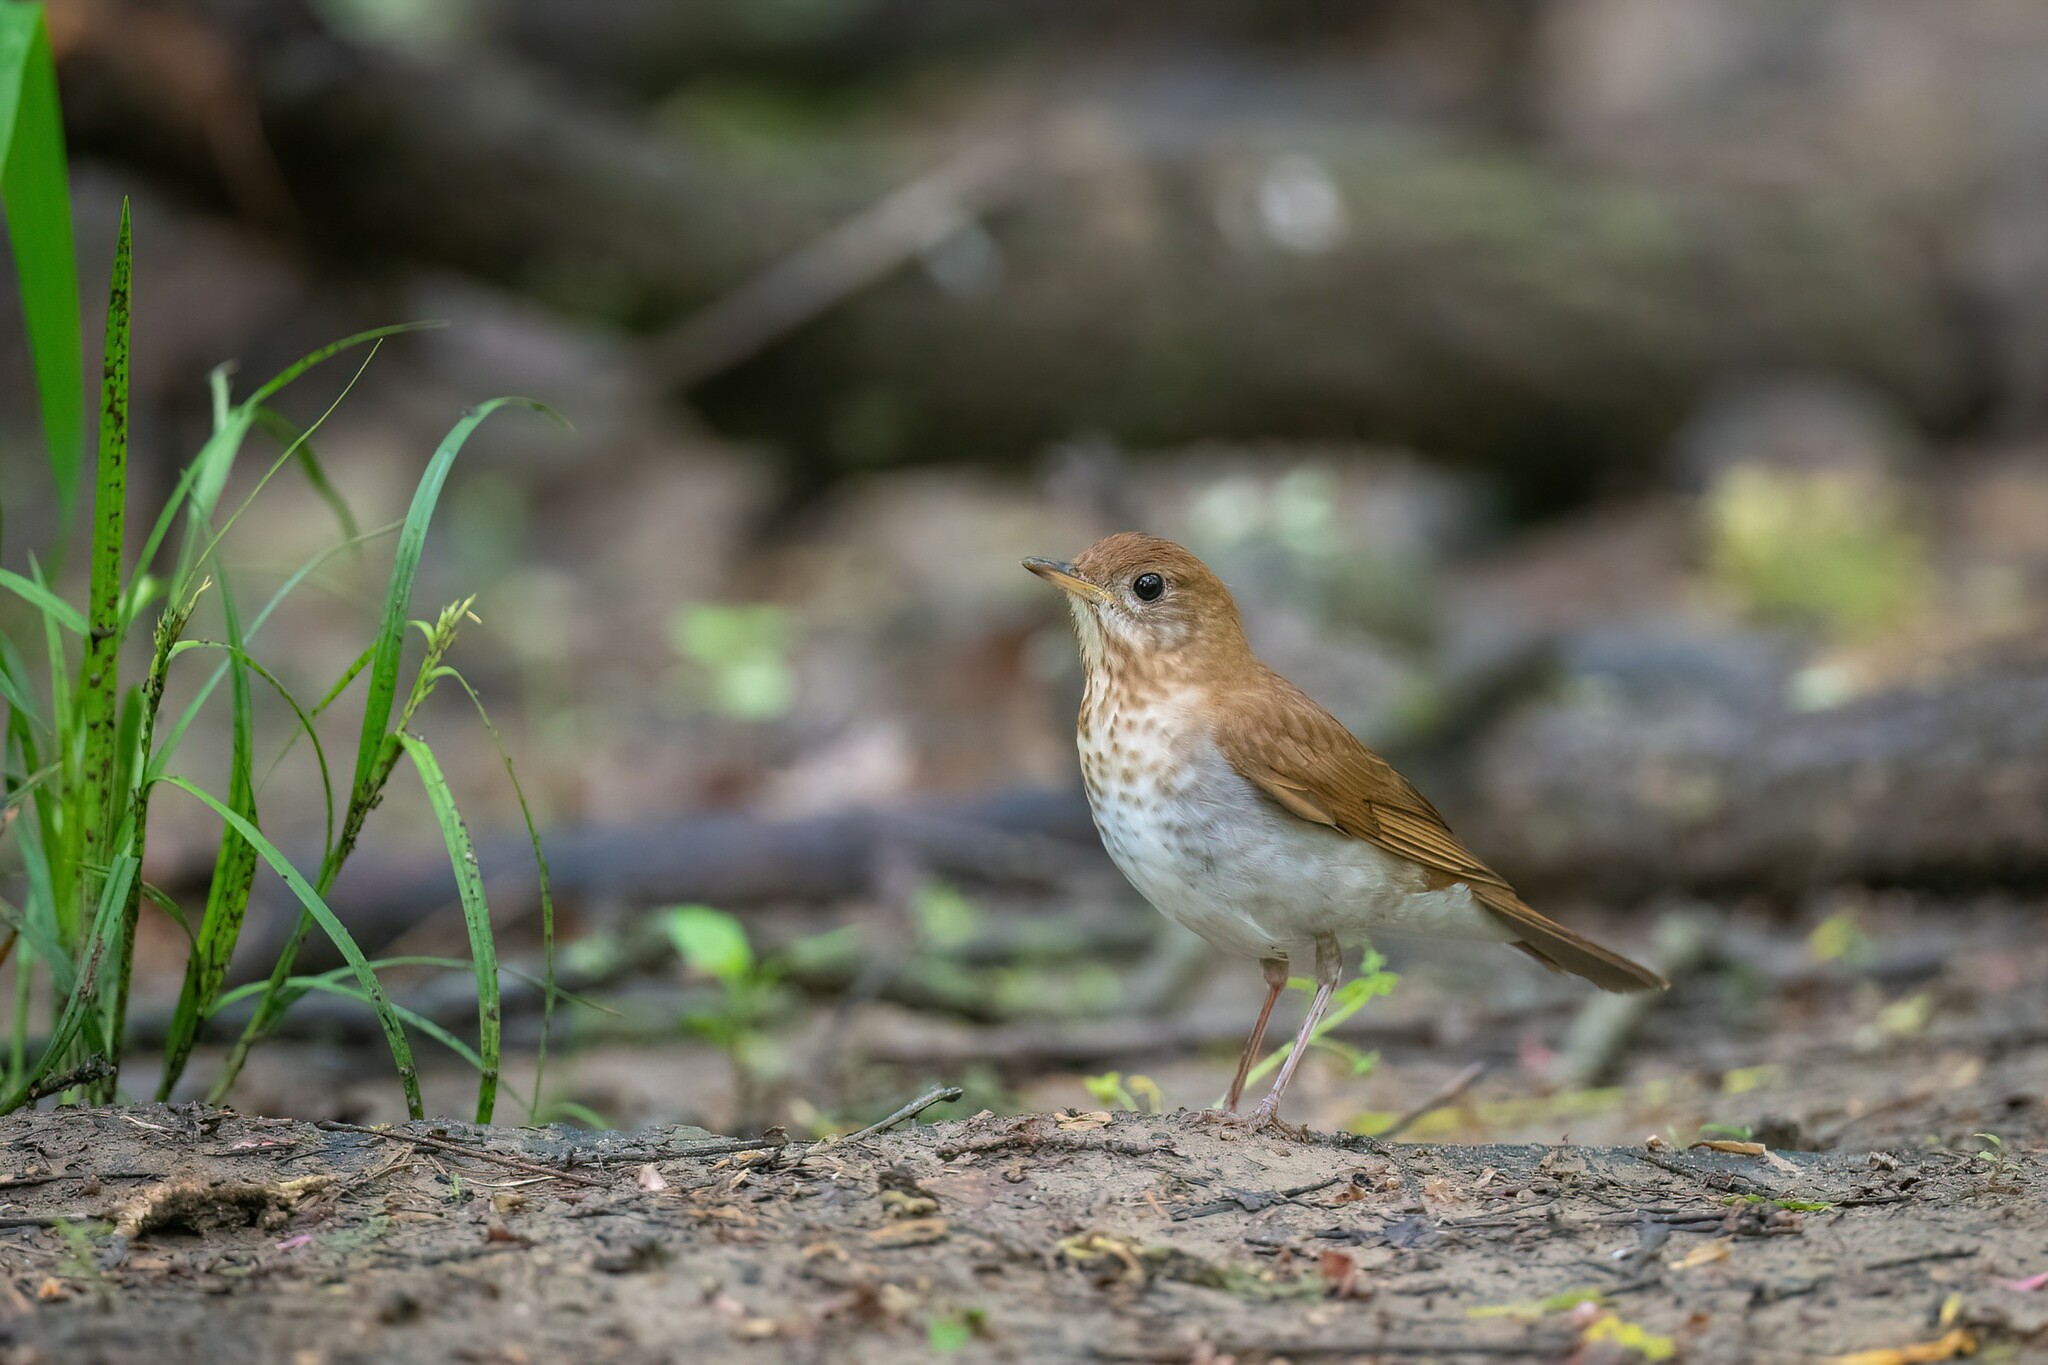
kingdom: Animalia
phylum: Chordata
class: Aves
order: Passeriformes
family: Turdidae
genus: Catharus
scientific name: Catharus fuscescens
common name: Veery
